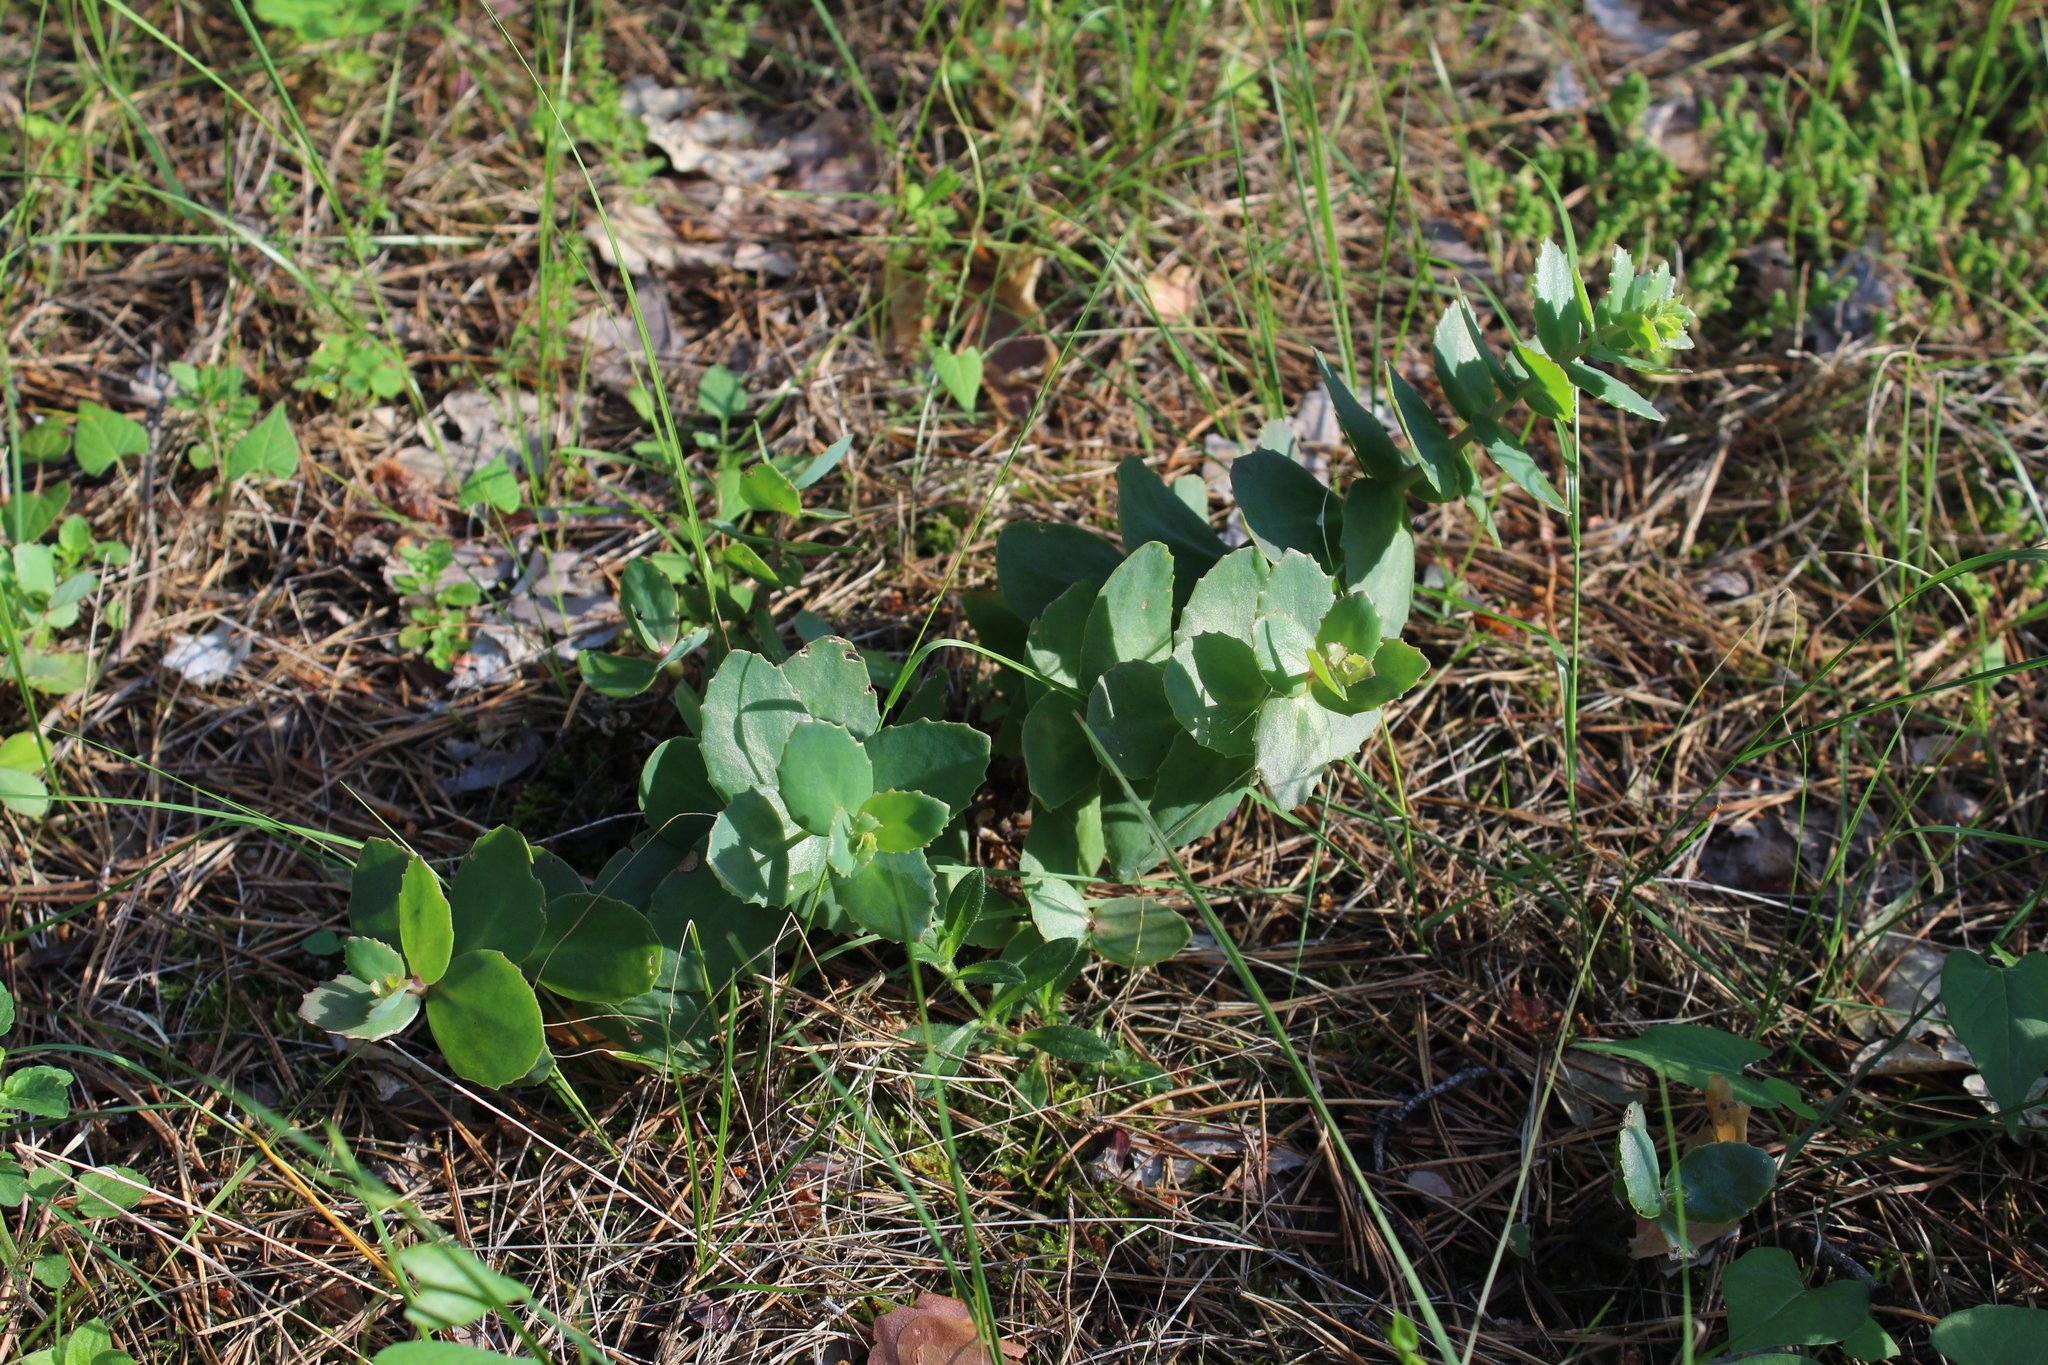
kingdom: Plantae
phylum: Tracheophyta
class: Magnoliopsida
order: Saxifragales
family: Crassulaceae
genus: Hylotelephium
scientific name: Hylotelephium maximum
